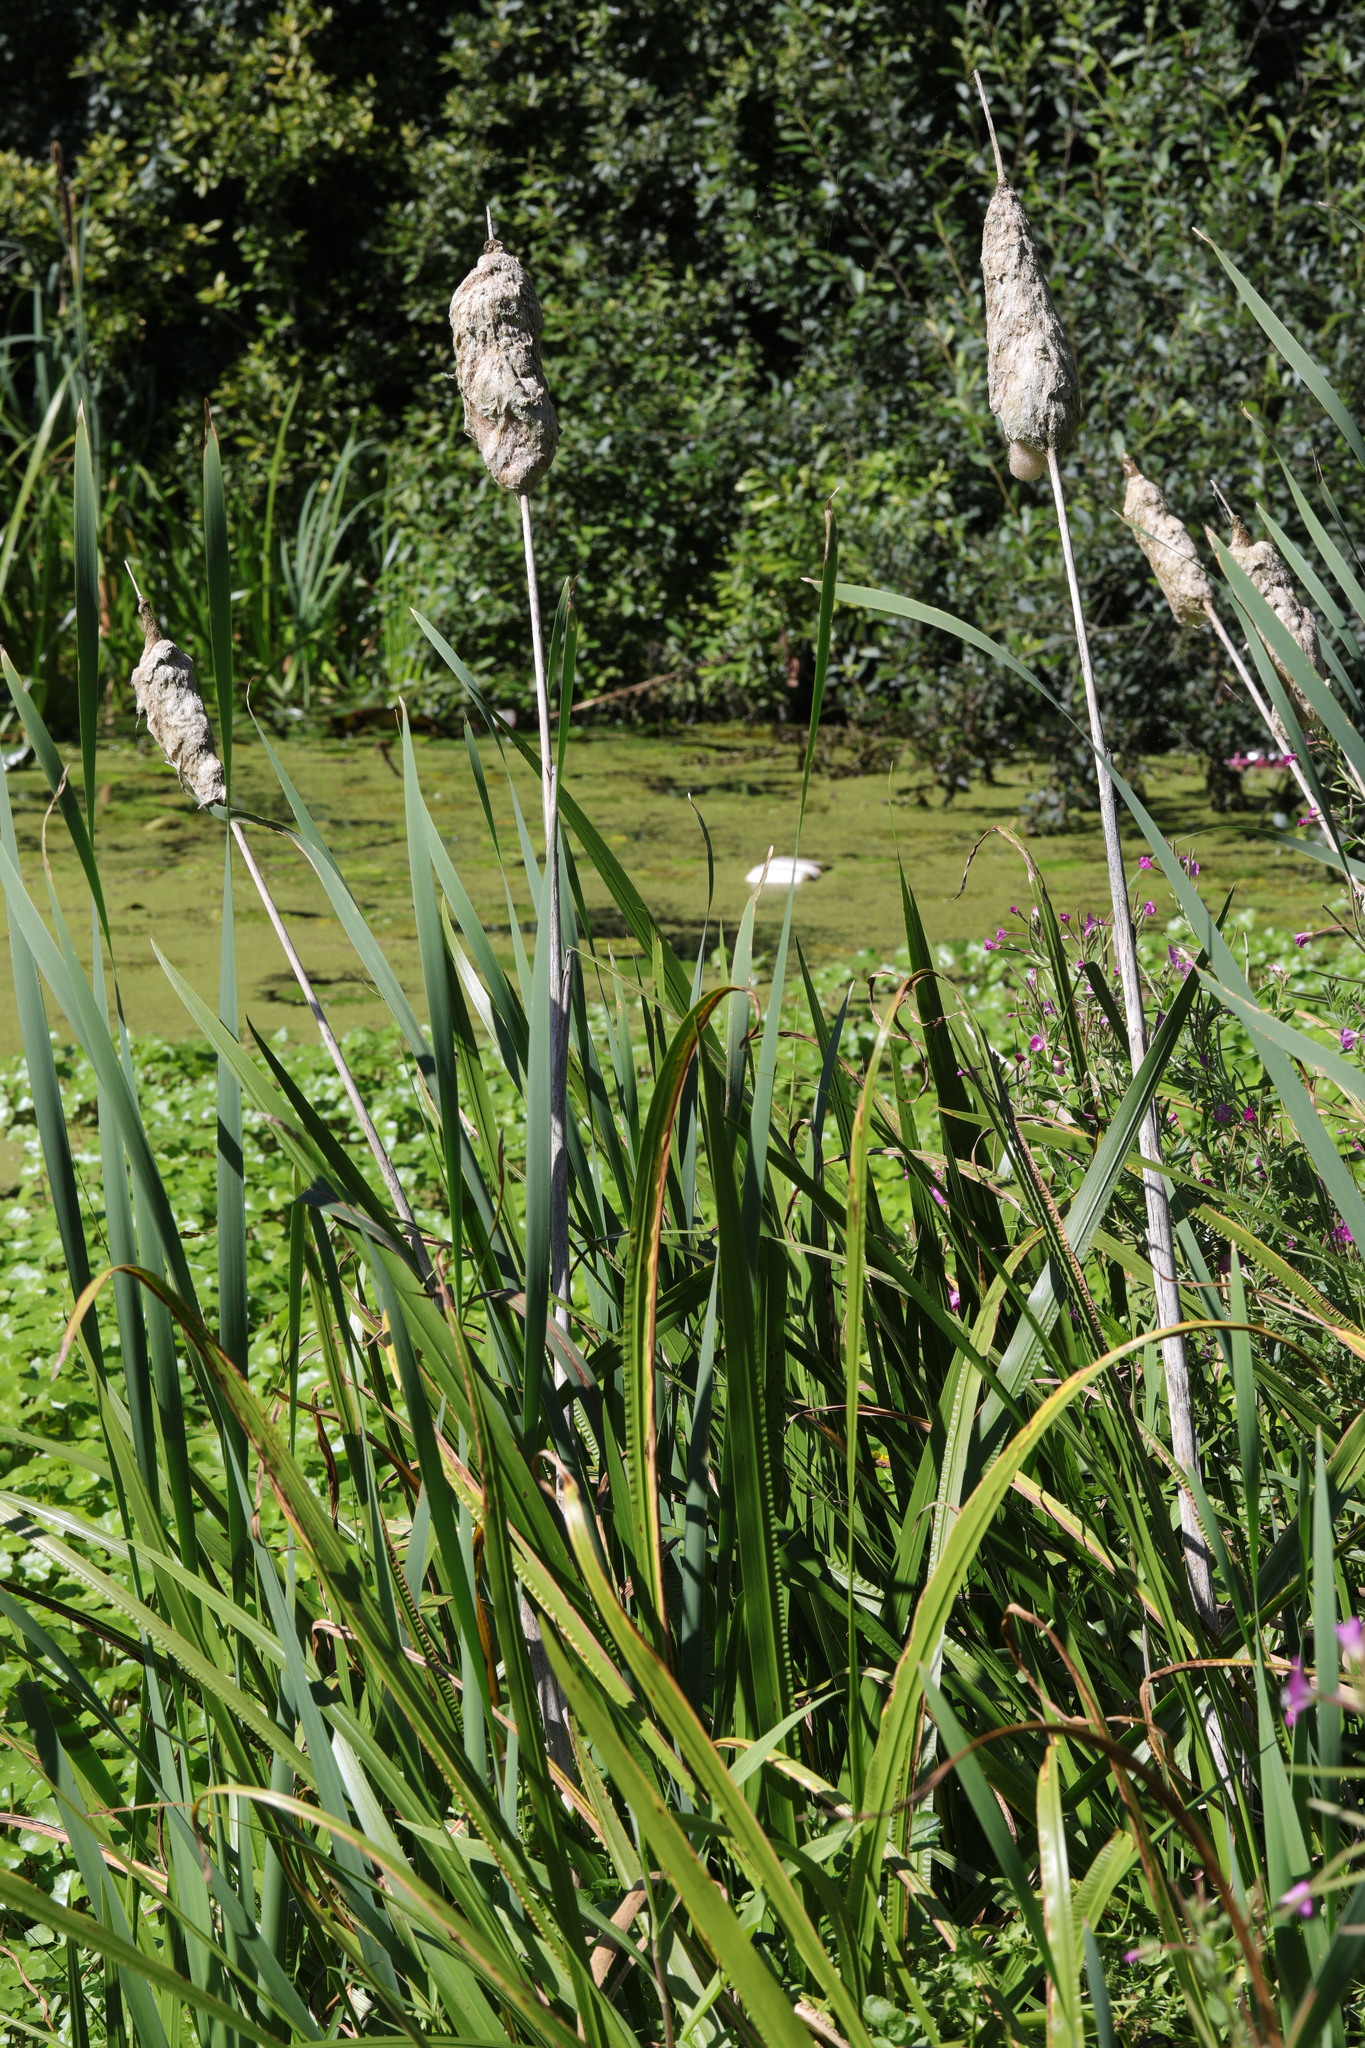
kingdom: Plantae
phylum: Tracheophyta
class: Liliopsida
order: Poales
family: Typhaceae
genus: Typha
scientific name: Typha latifolia
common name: Broadleaf cattail
